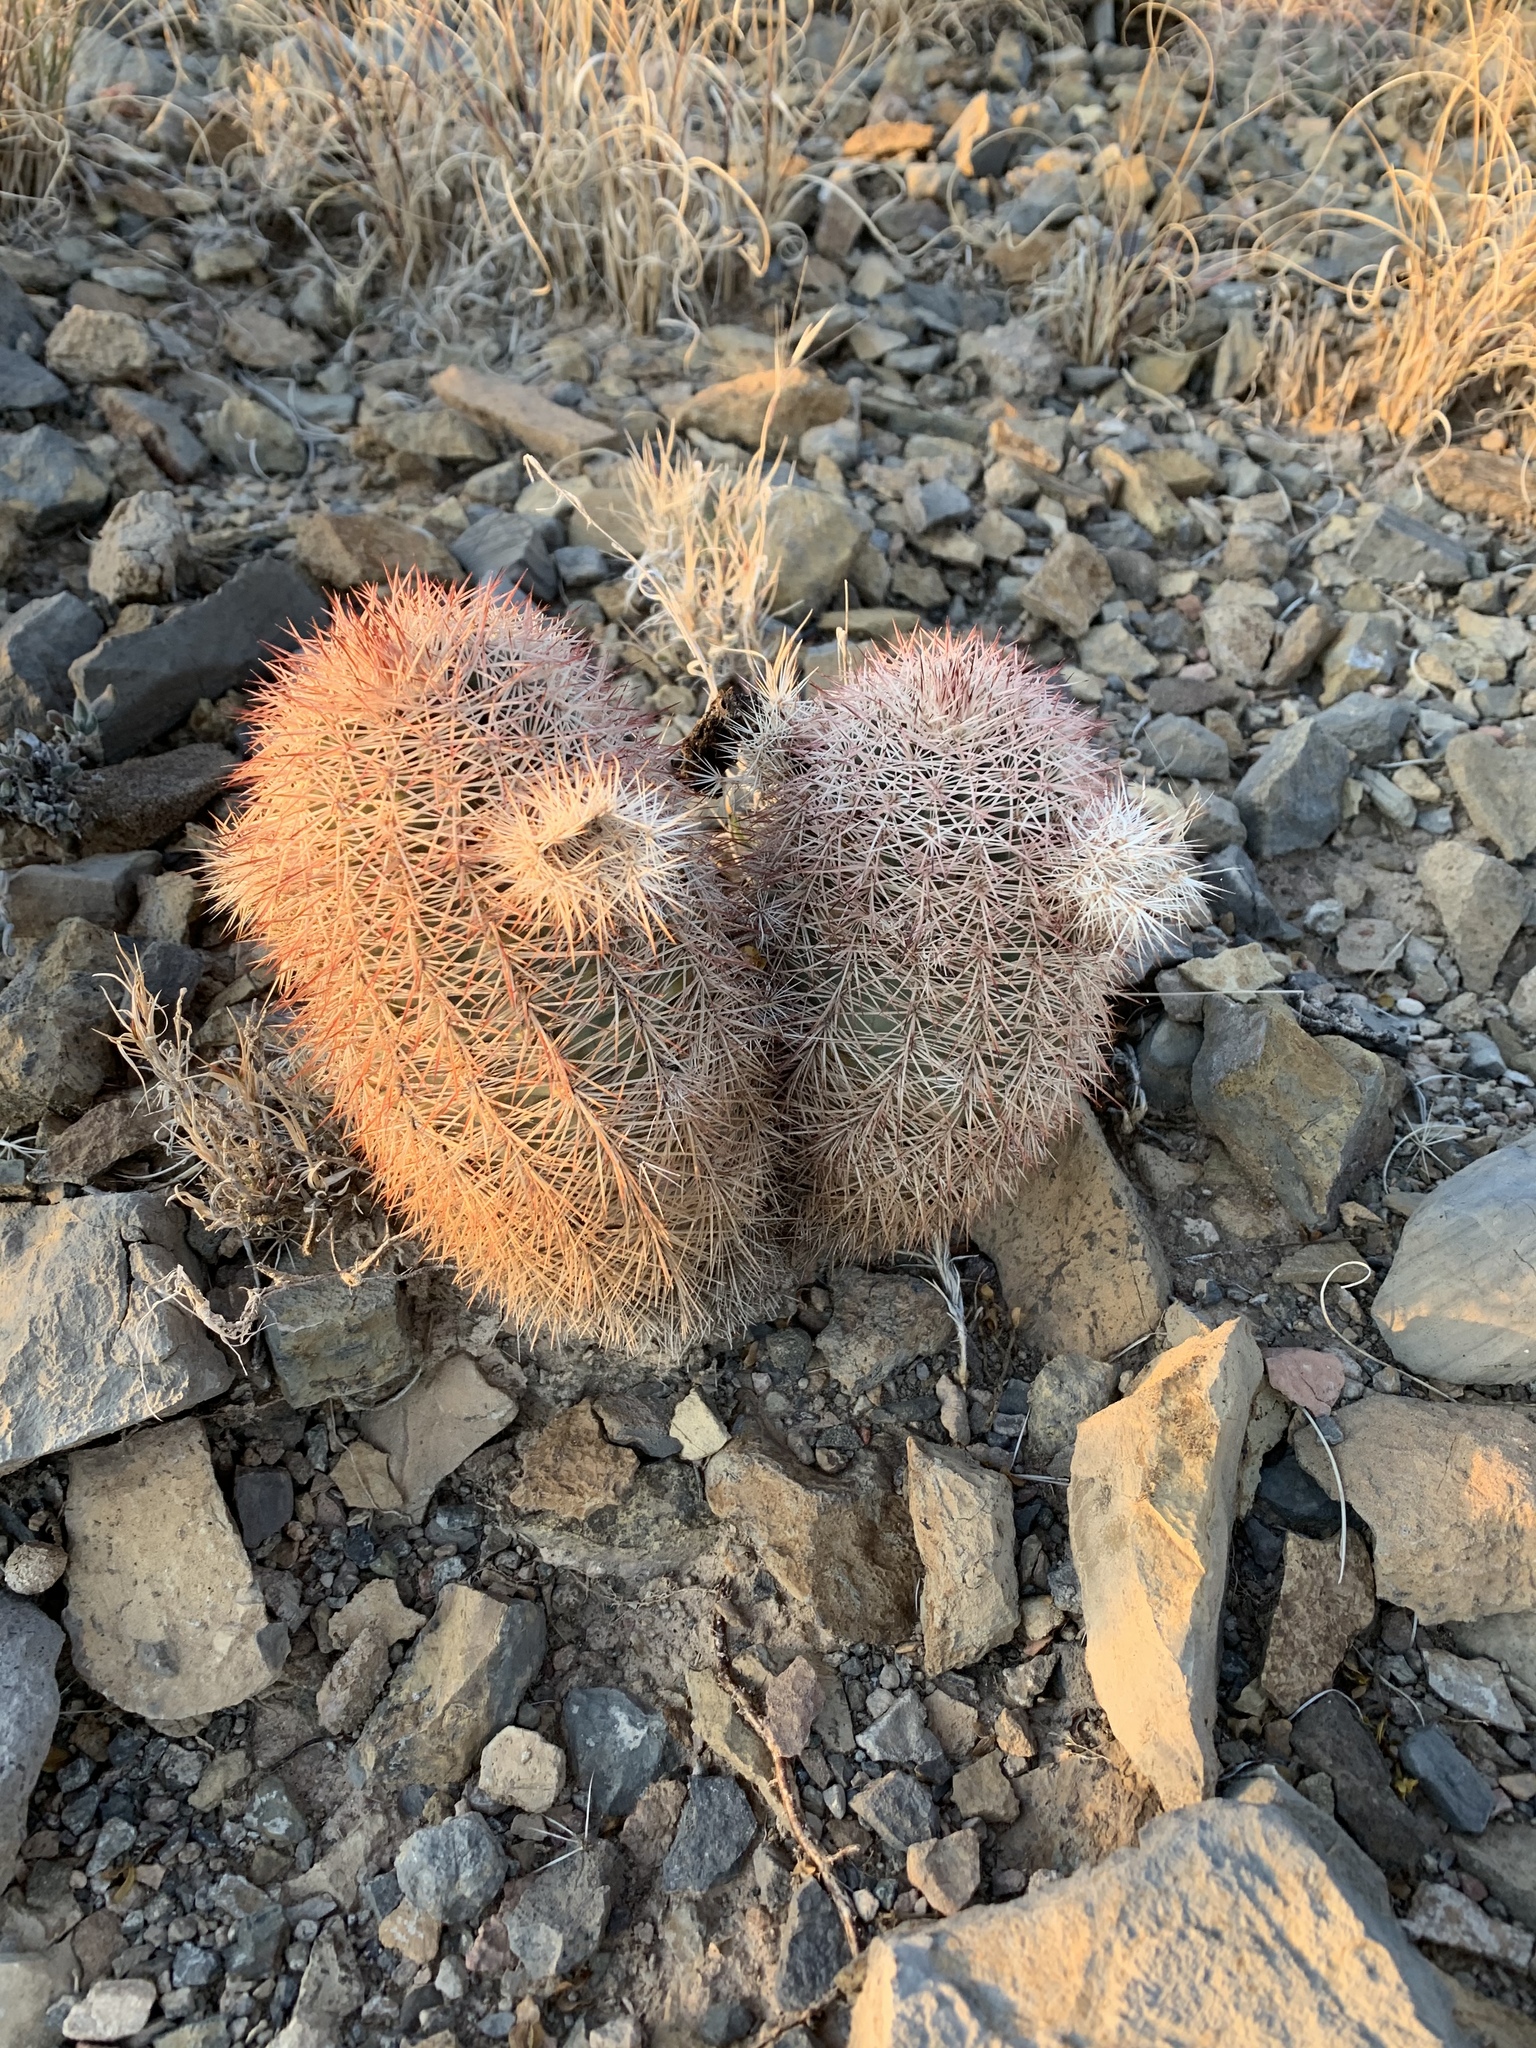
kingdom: Plantae
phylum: Tracheophyta
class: Magnoliopsida
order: Caryophyllales
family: Cactaceae
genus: Echinocereus
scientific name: Echinocereus dasyacanthus
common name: Spiny hedgehog cactus
